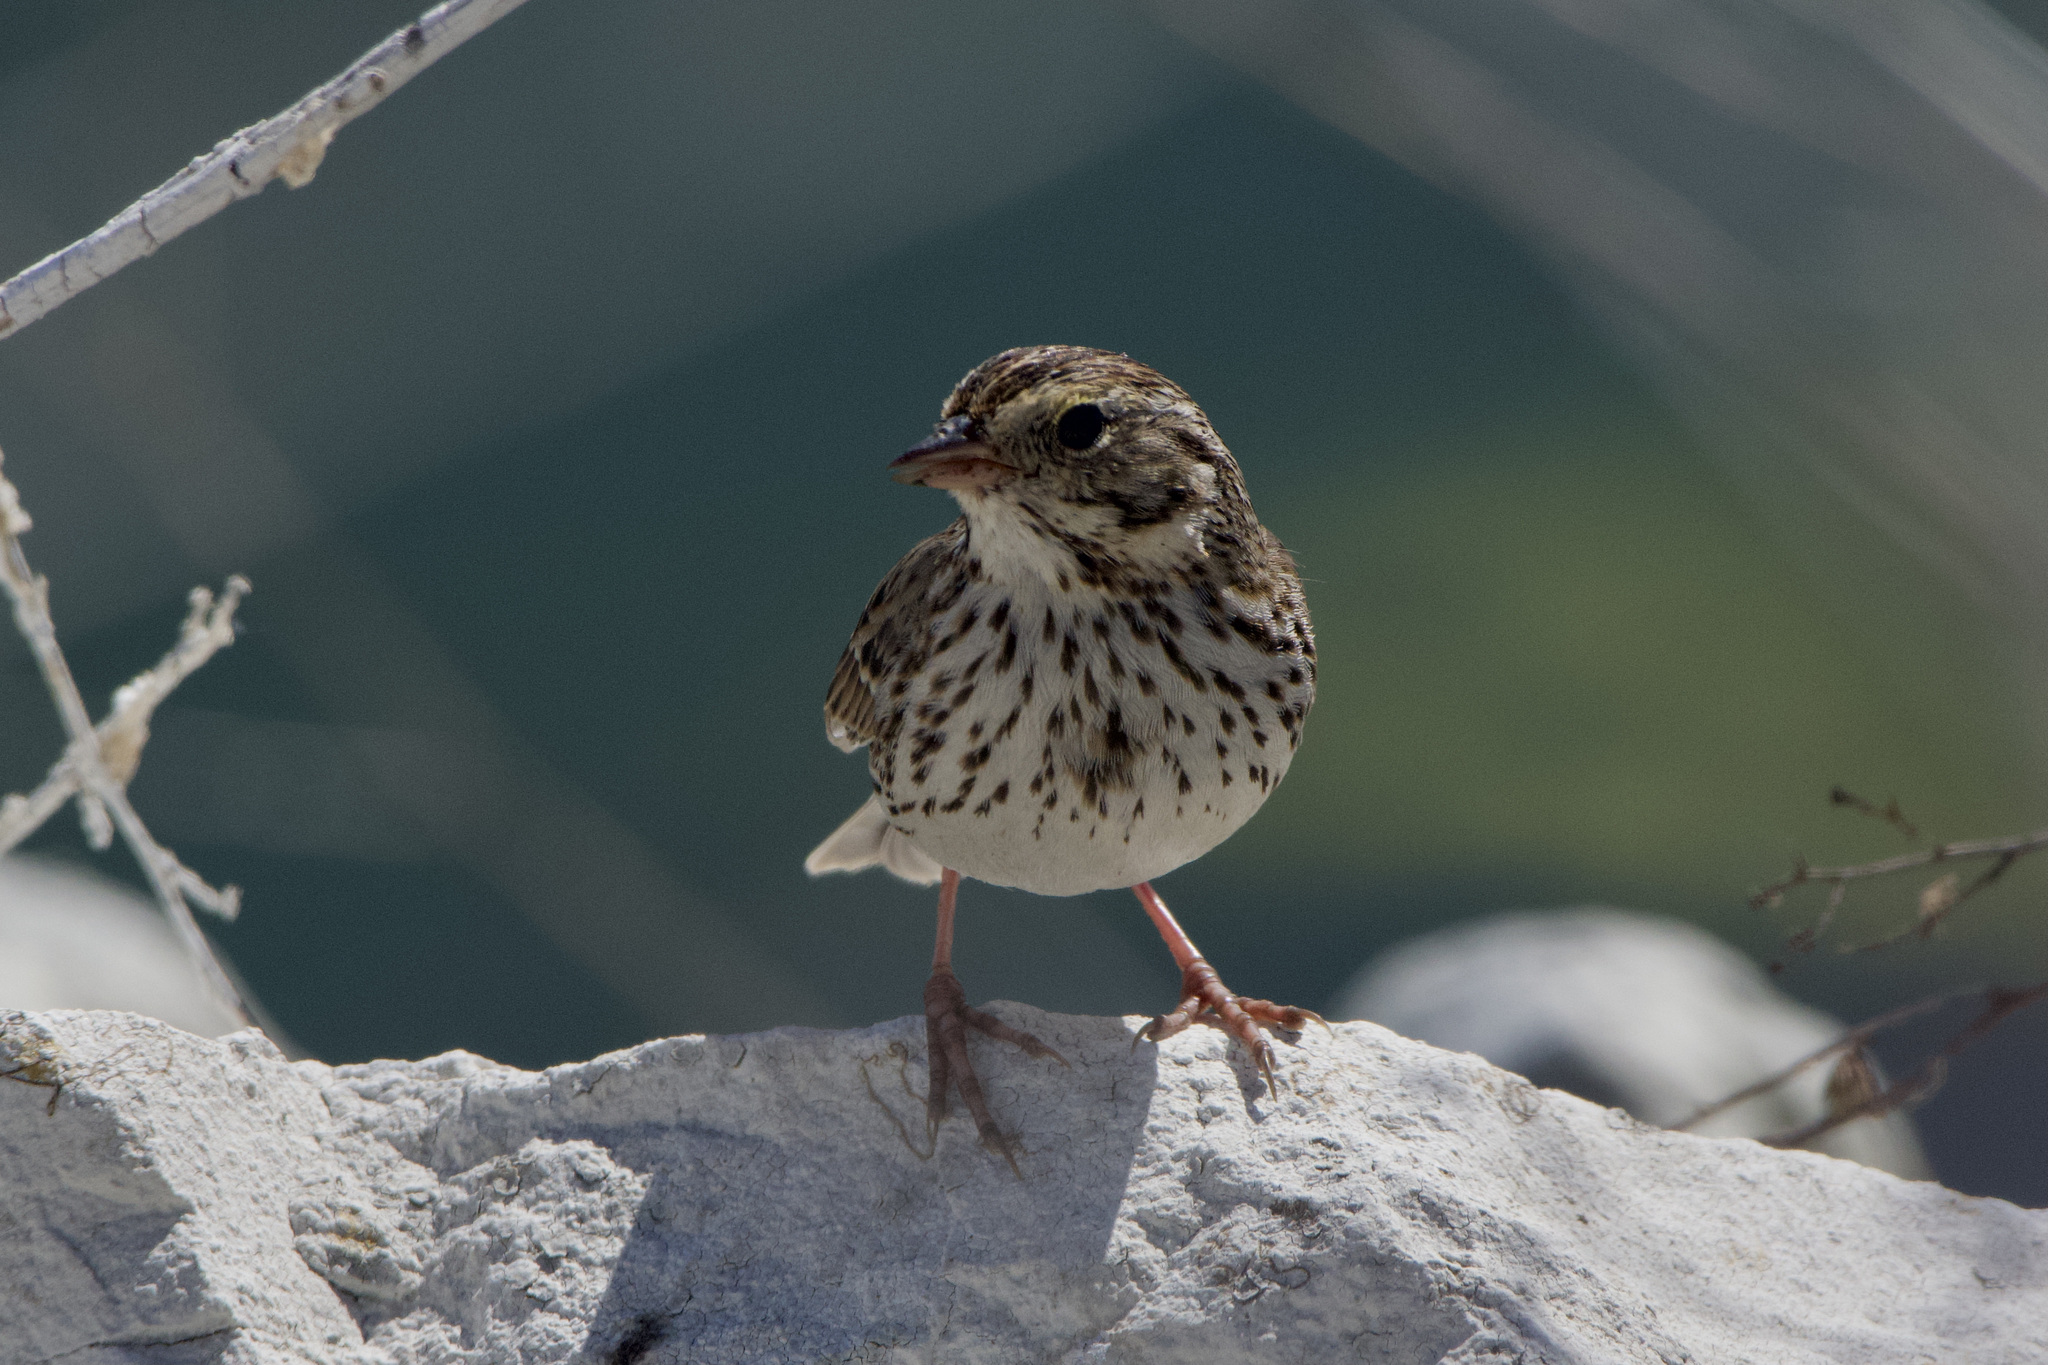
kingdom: Animalia
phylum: Chordata
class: Aves
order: Passeriformes
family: Passerellidae
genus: Passerculus
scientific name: Passerculus sandwichensis
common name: Savannah sparrow
